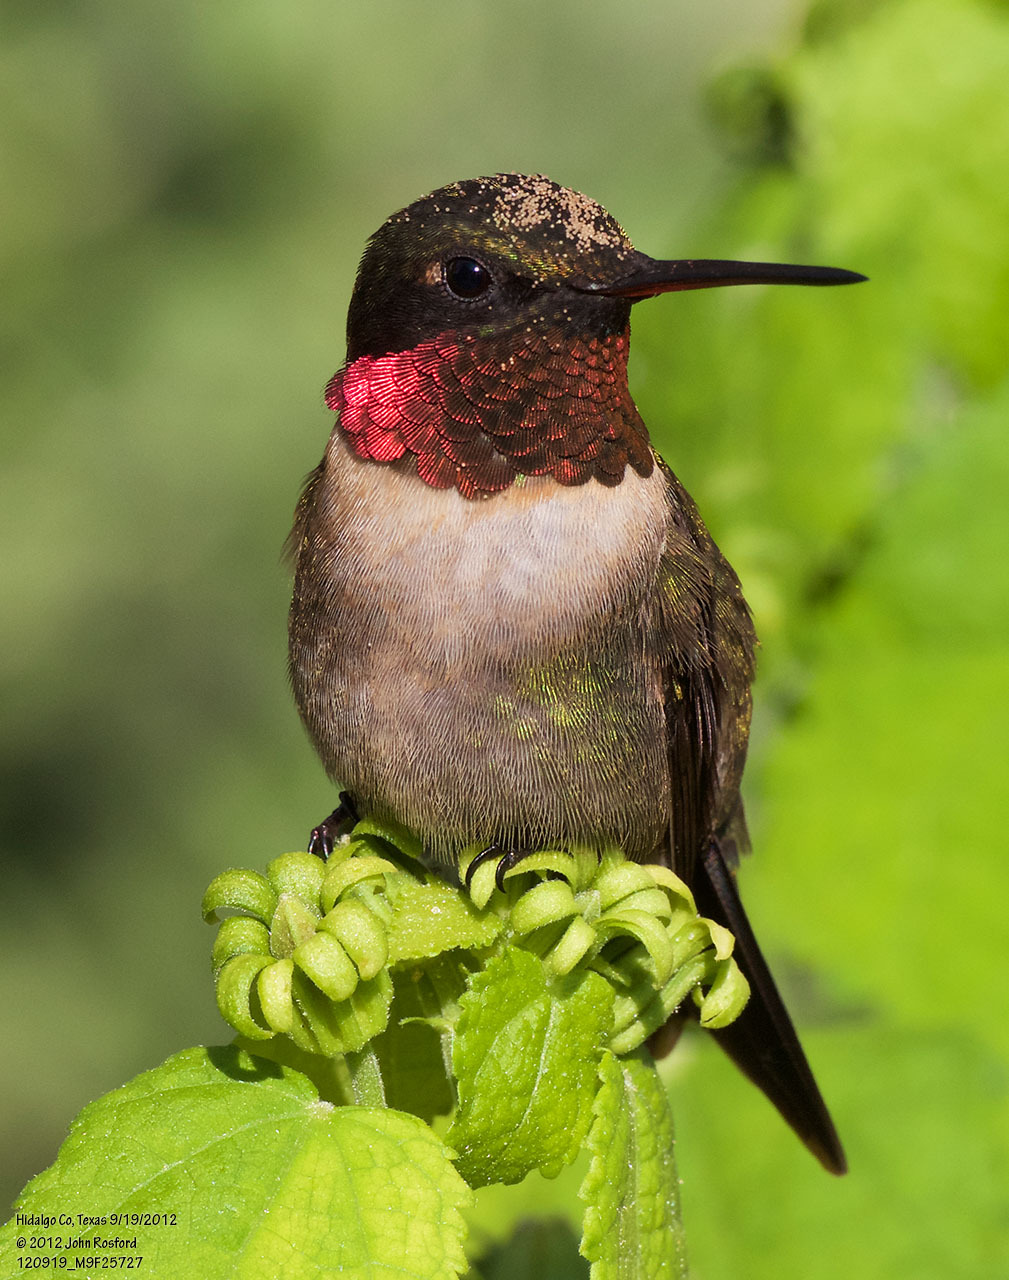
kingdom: Animalia
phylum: Chordata
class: Aves
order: Apodiformes
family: Trochilidae
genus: Archilochus
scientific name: Archilochus colubris
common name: Ruby-throated hummingbird
